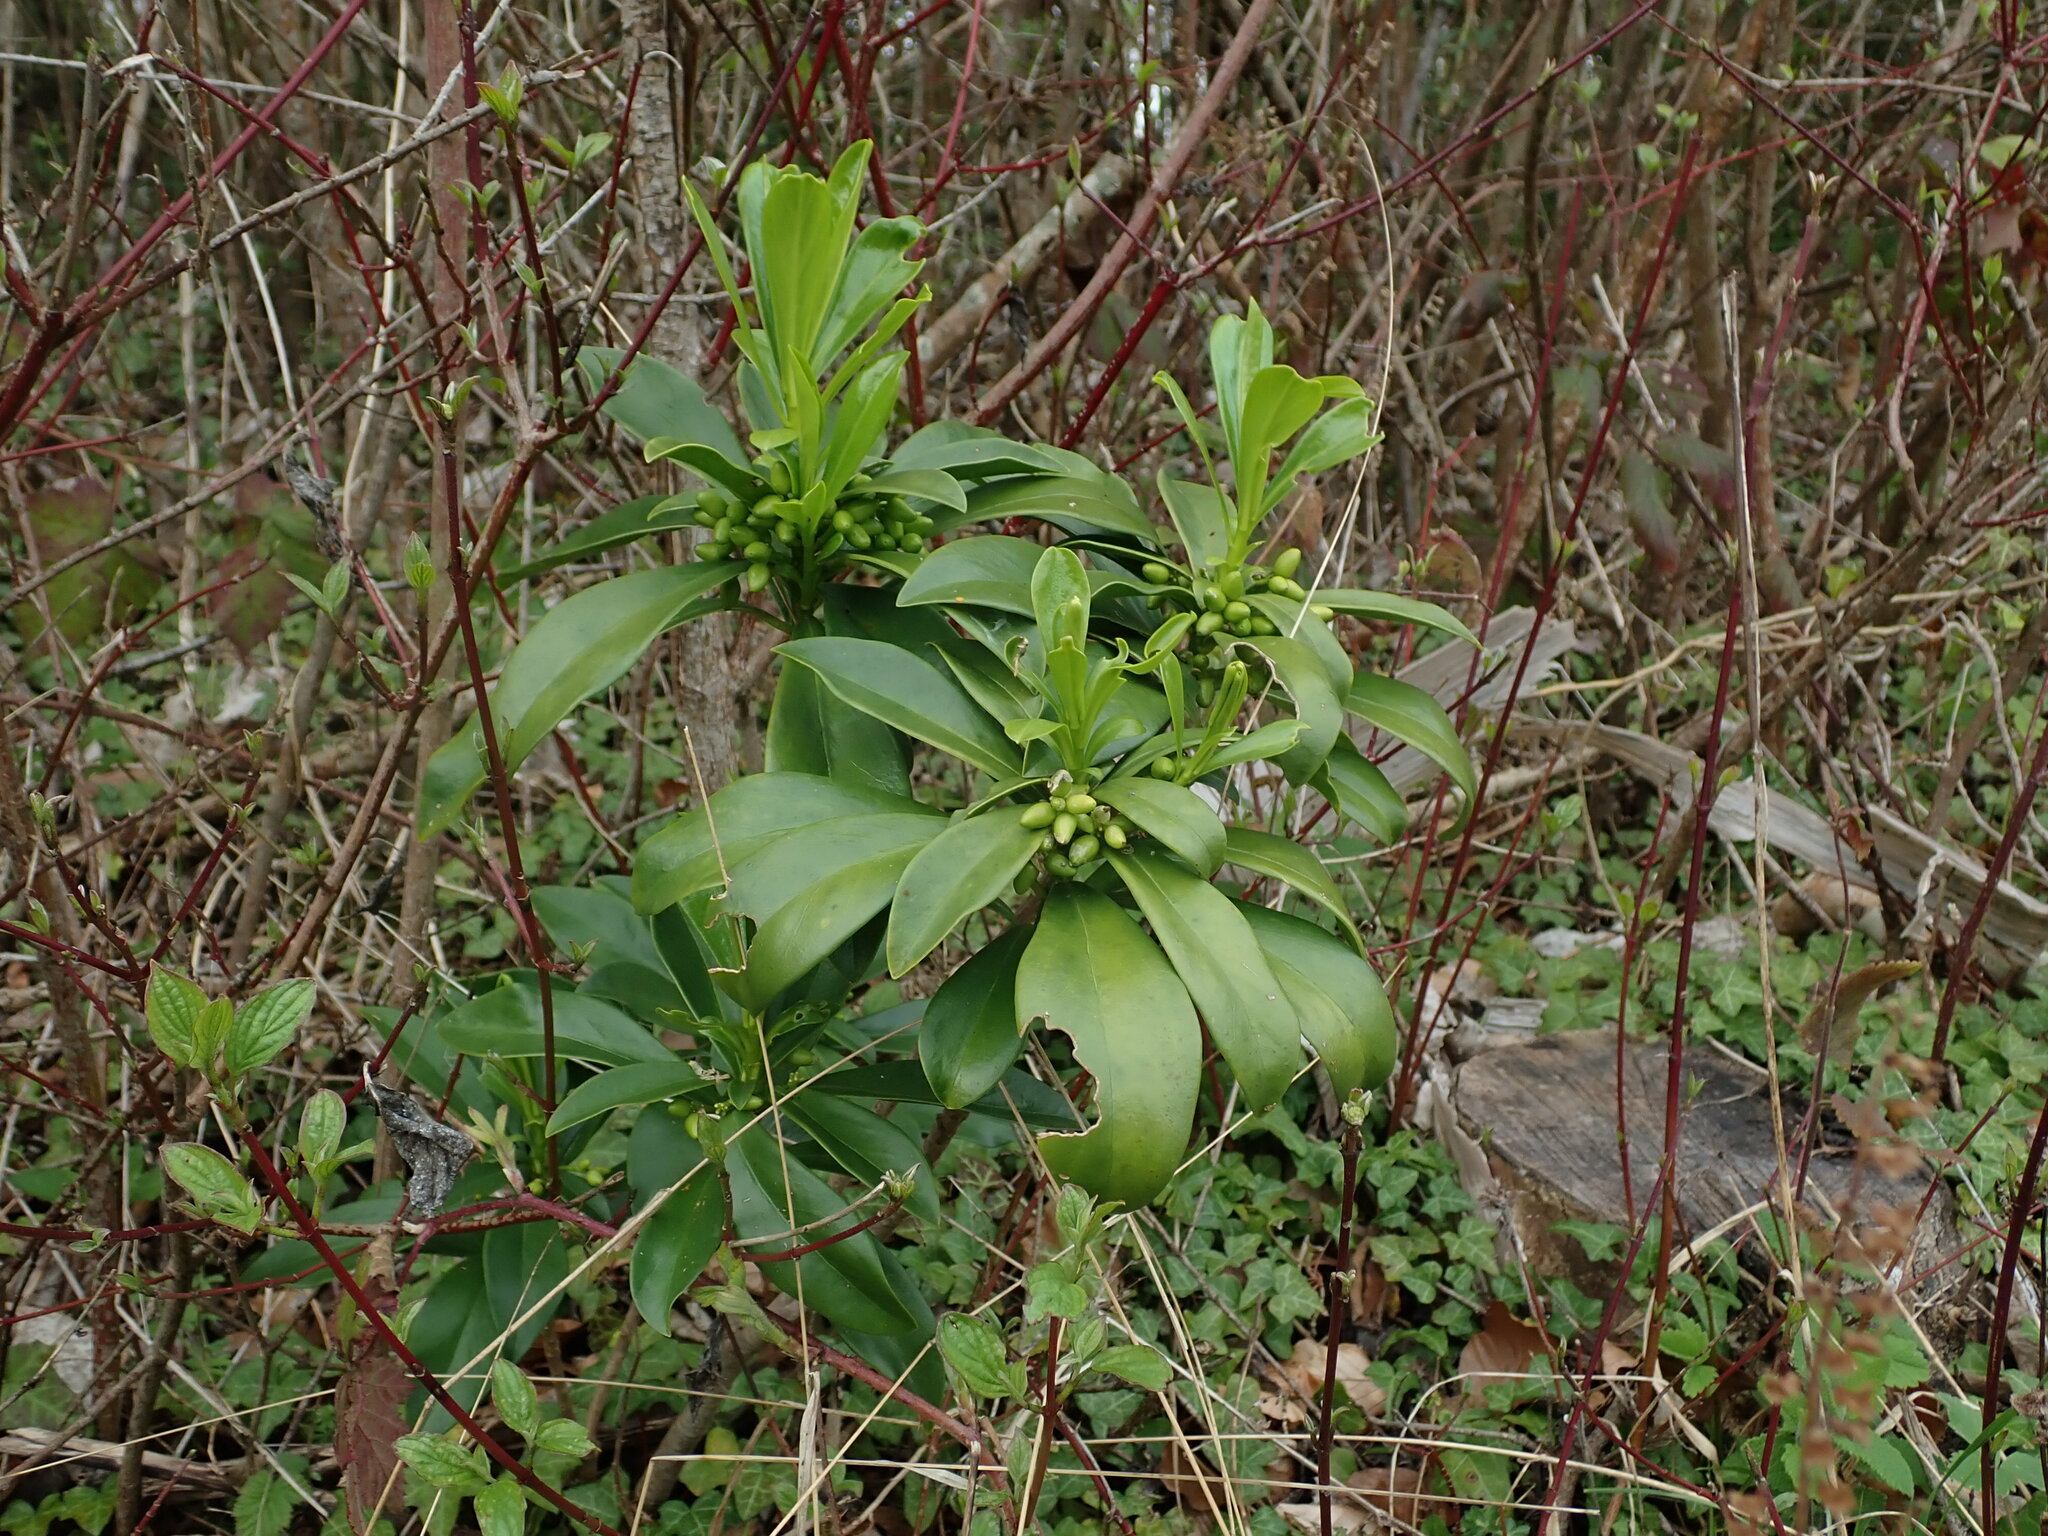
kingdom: Plantae
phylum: Tracheophyta
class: Magnoliopsida
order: Malvales
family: Thymelaeaceae
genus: Daphne
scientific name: Daphne laureola
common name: Spurge-laurel
